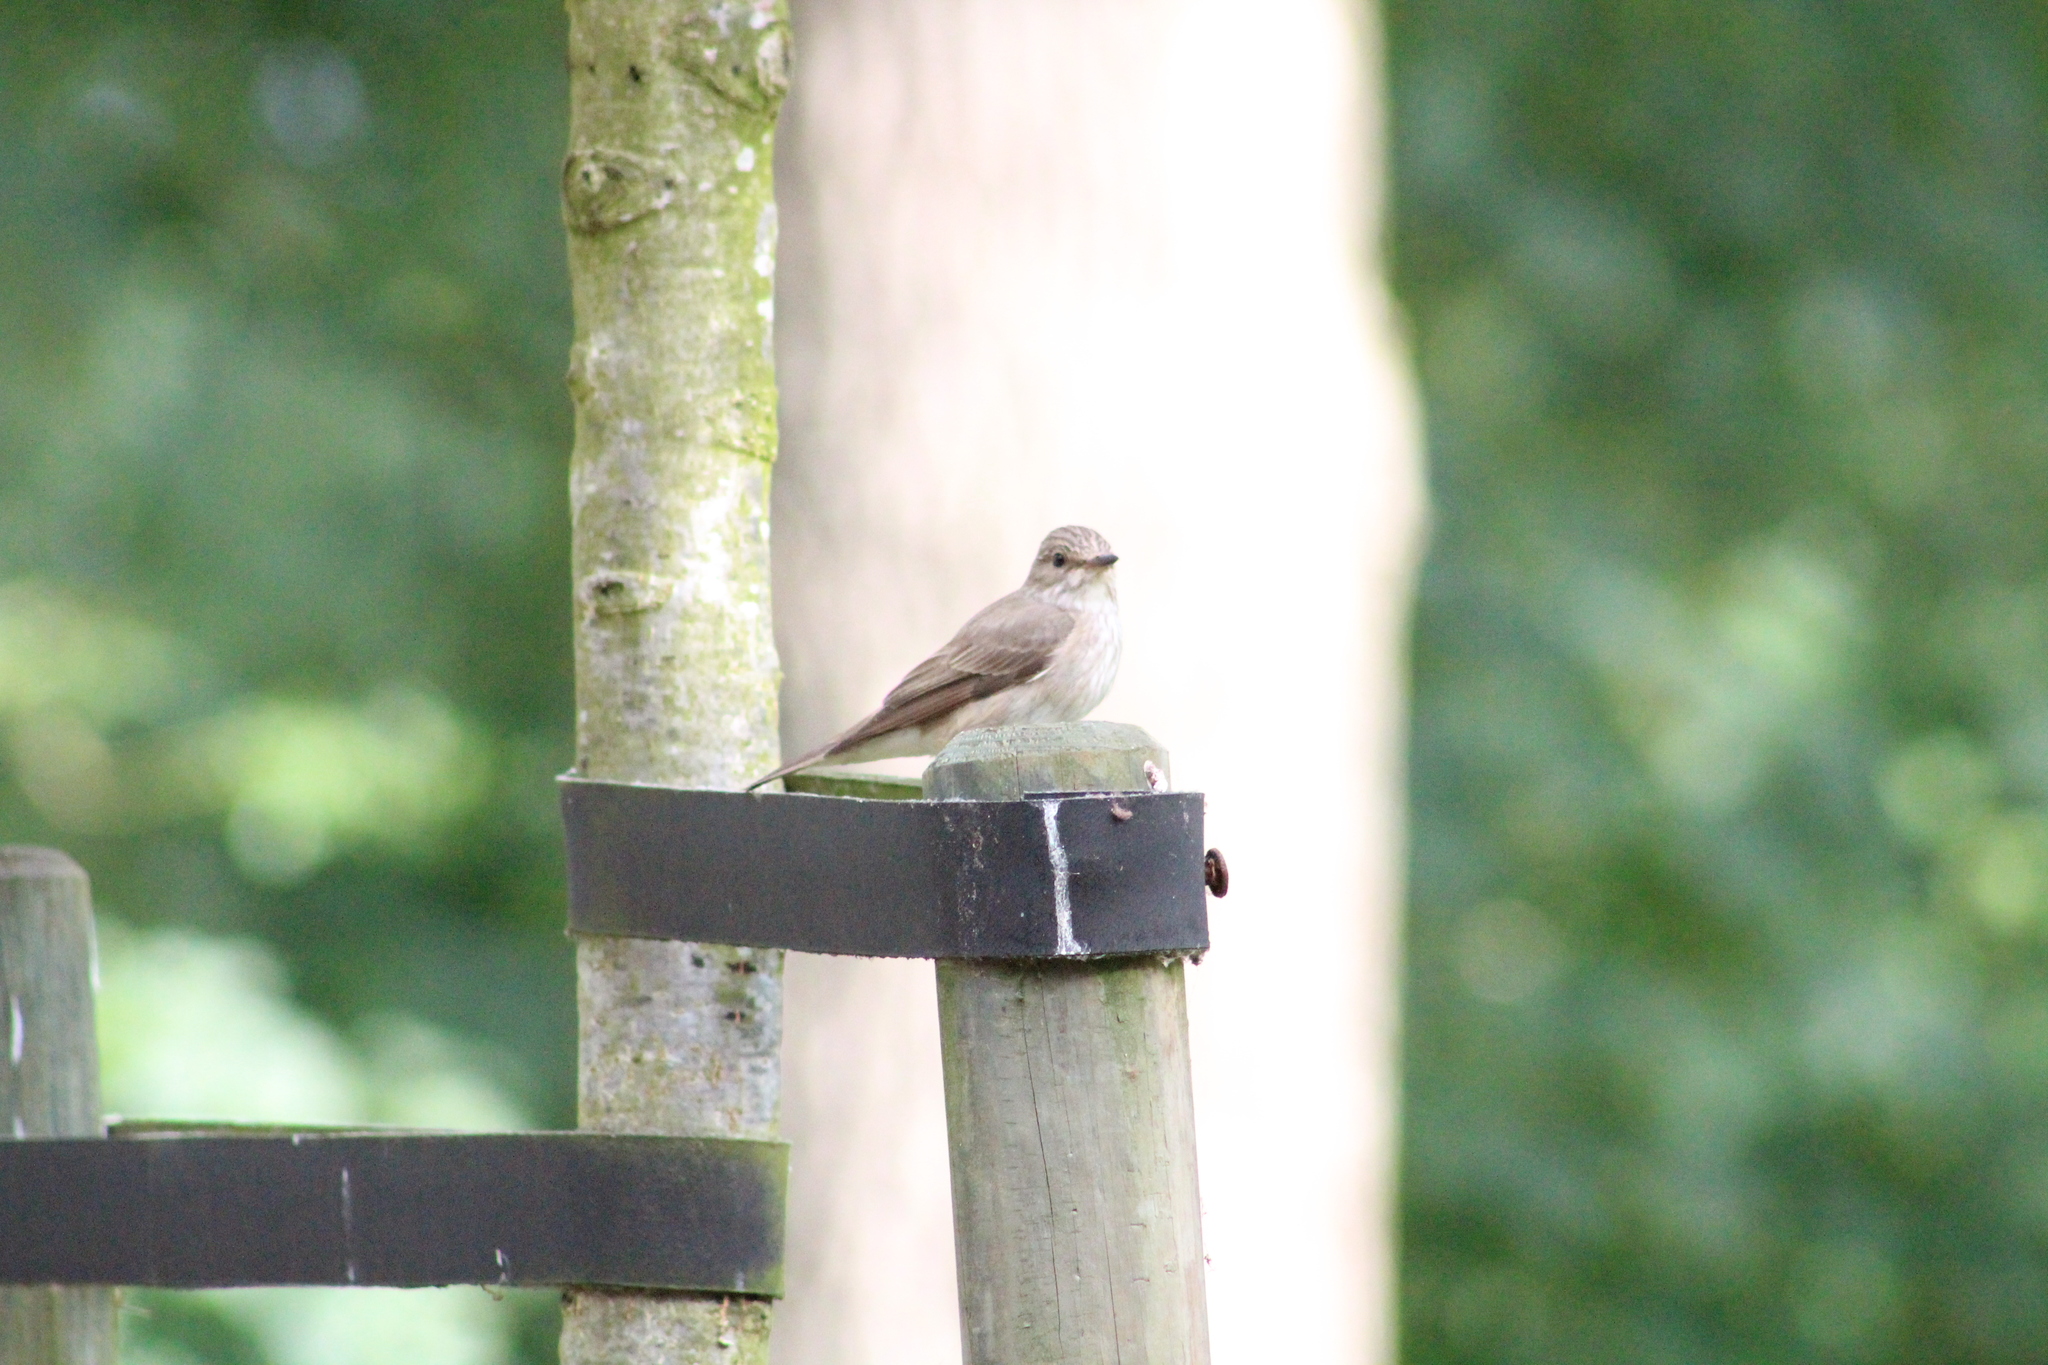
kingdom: Animalia
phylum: Chordata
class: Aves
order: Passeriformes
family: Muscicapidae
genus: Muscicapa
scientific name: Muscicapa striata
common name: Spotted flycatcher
